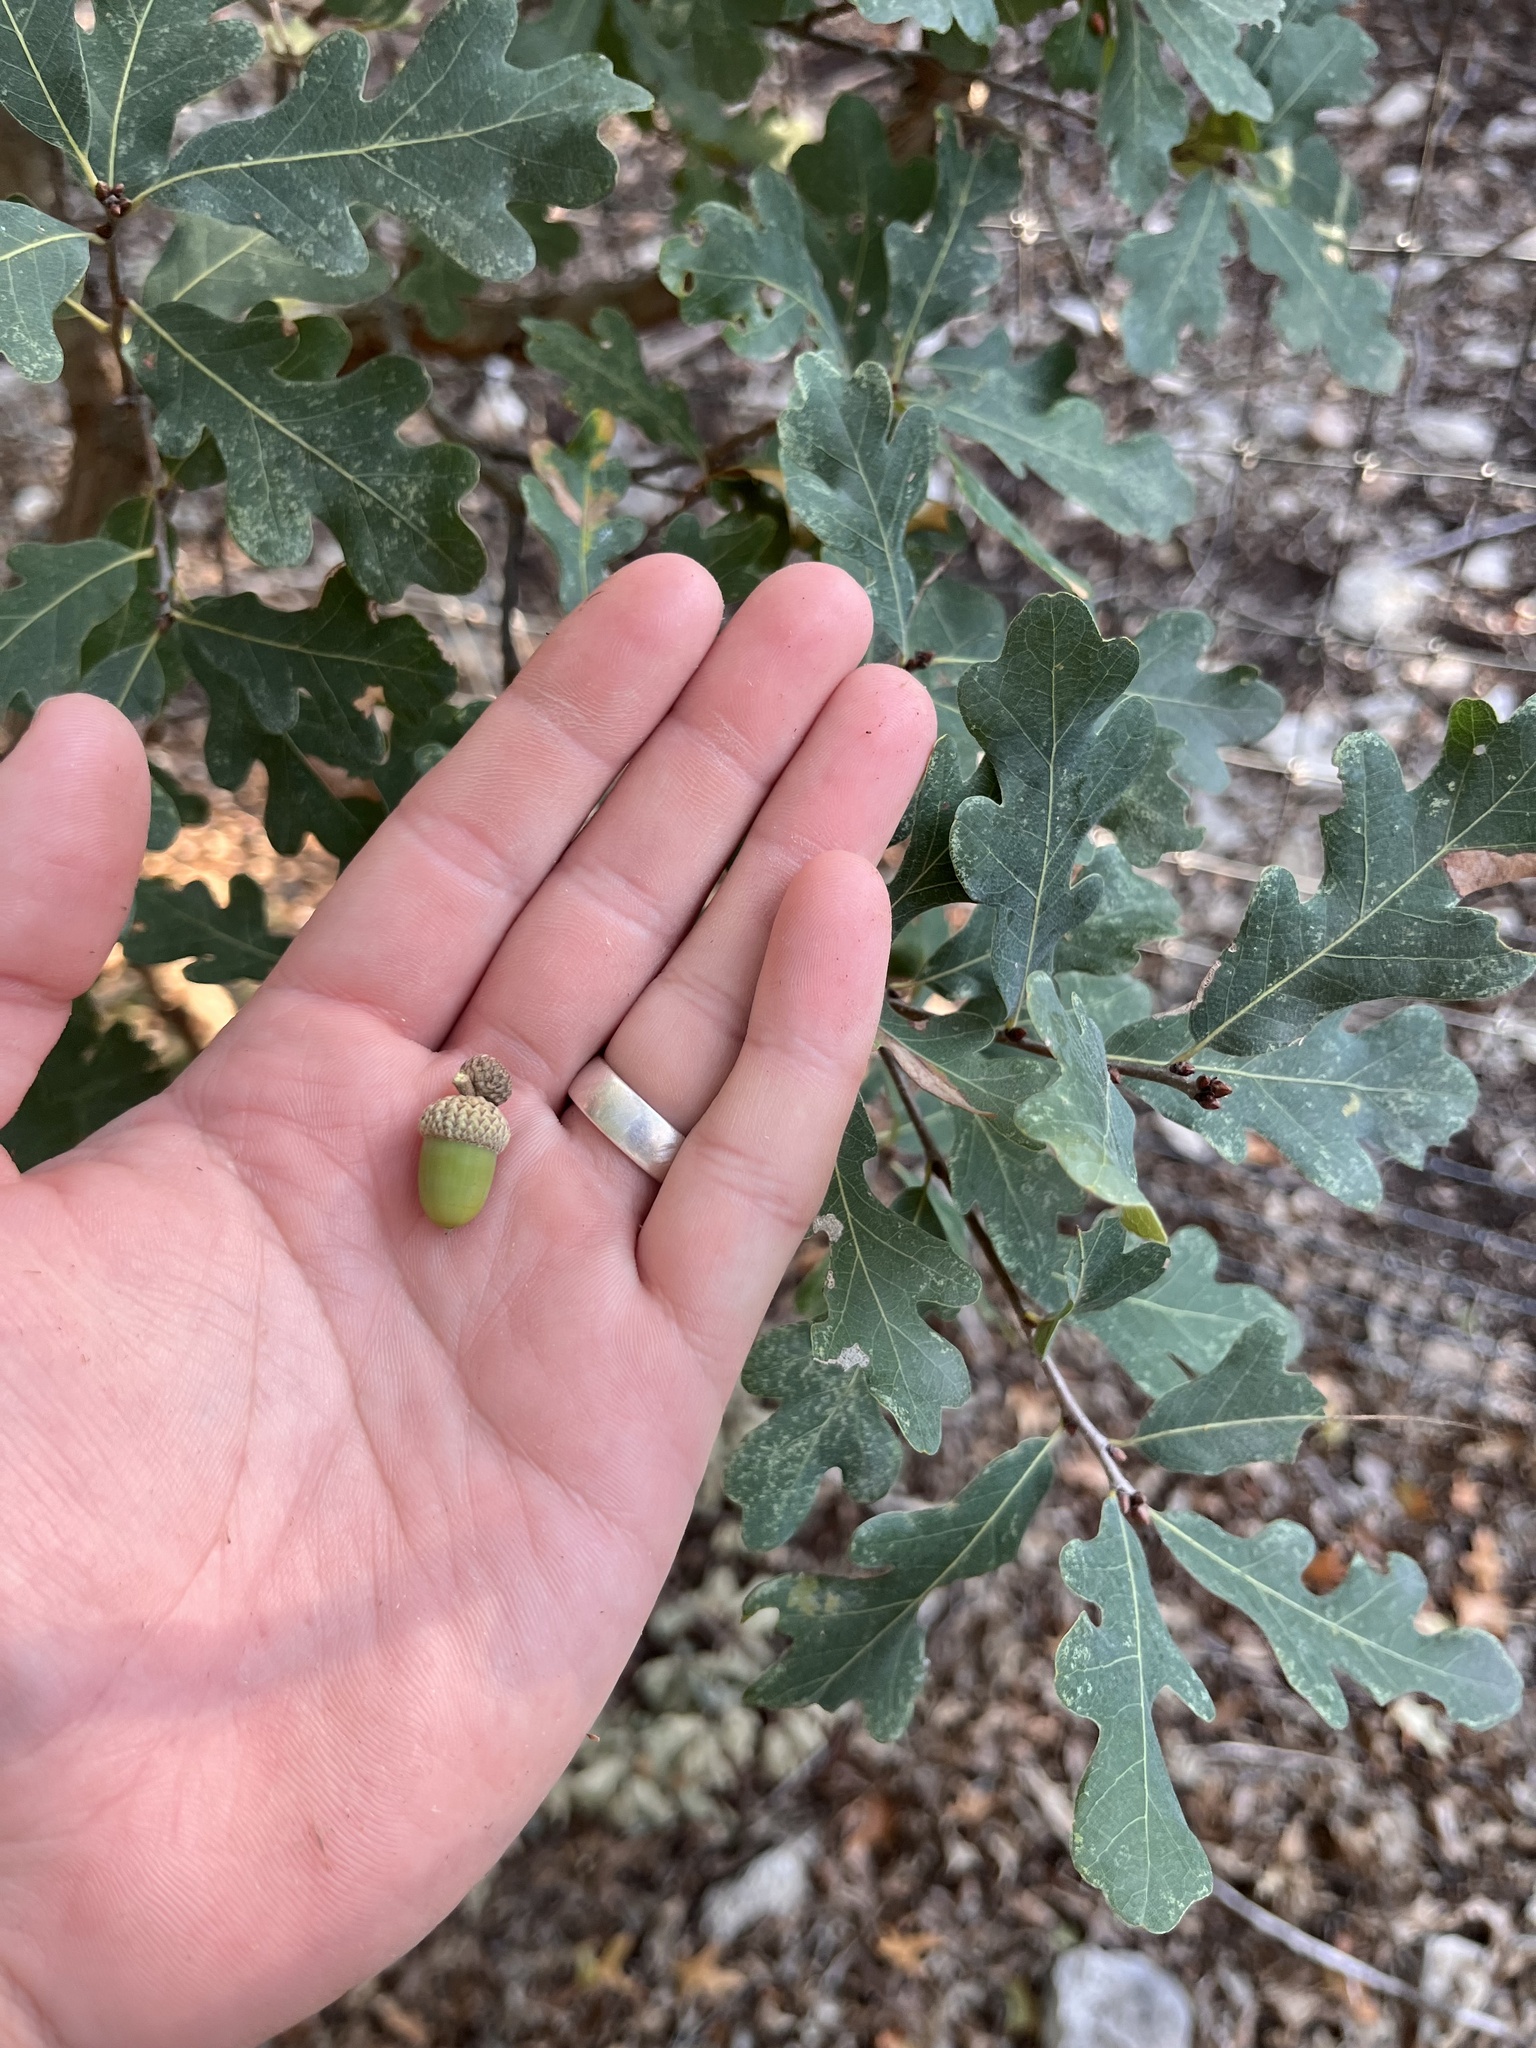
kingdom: Plantae
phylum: Tracheophyta
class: Magnoliopsida
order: Fagales
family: Fagaceae
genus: Quercus
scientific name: Quercus laceyi
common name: Lacey oak
